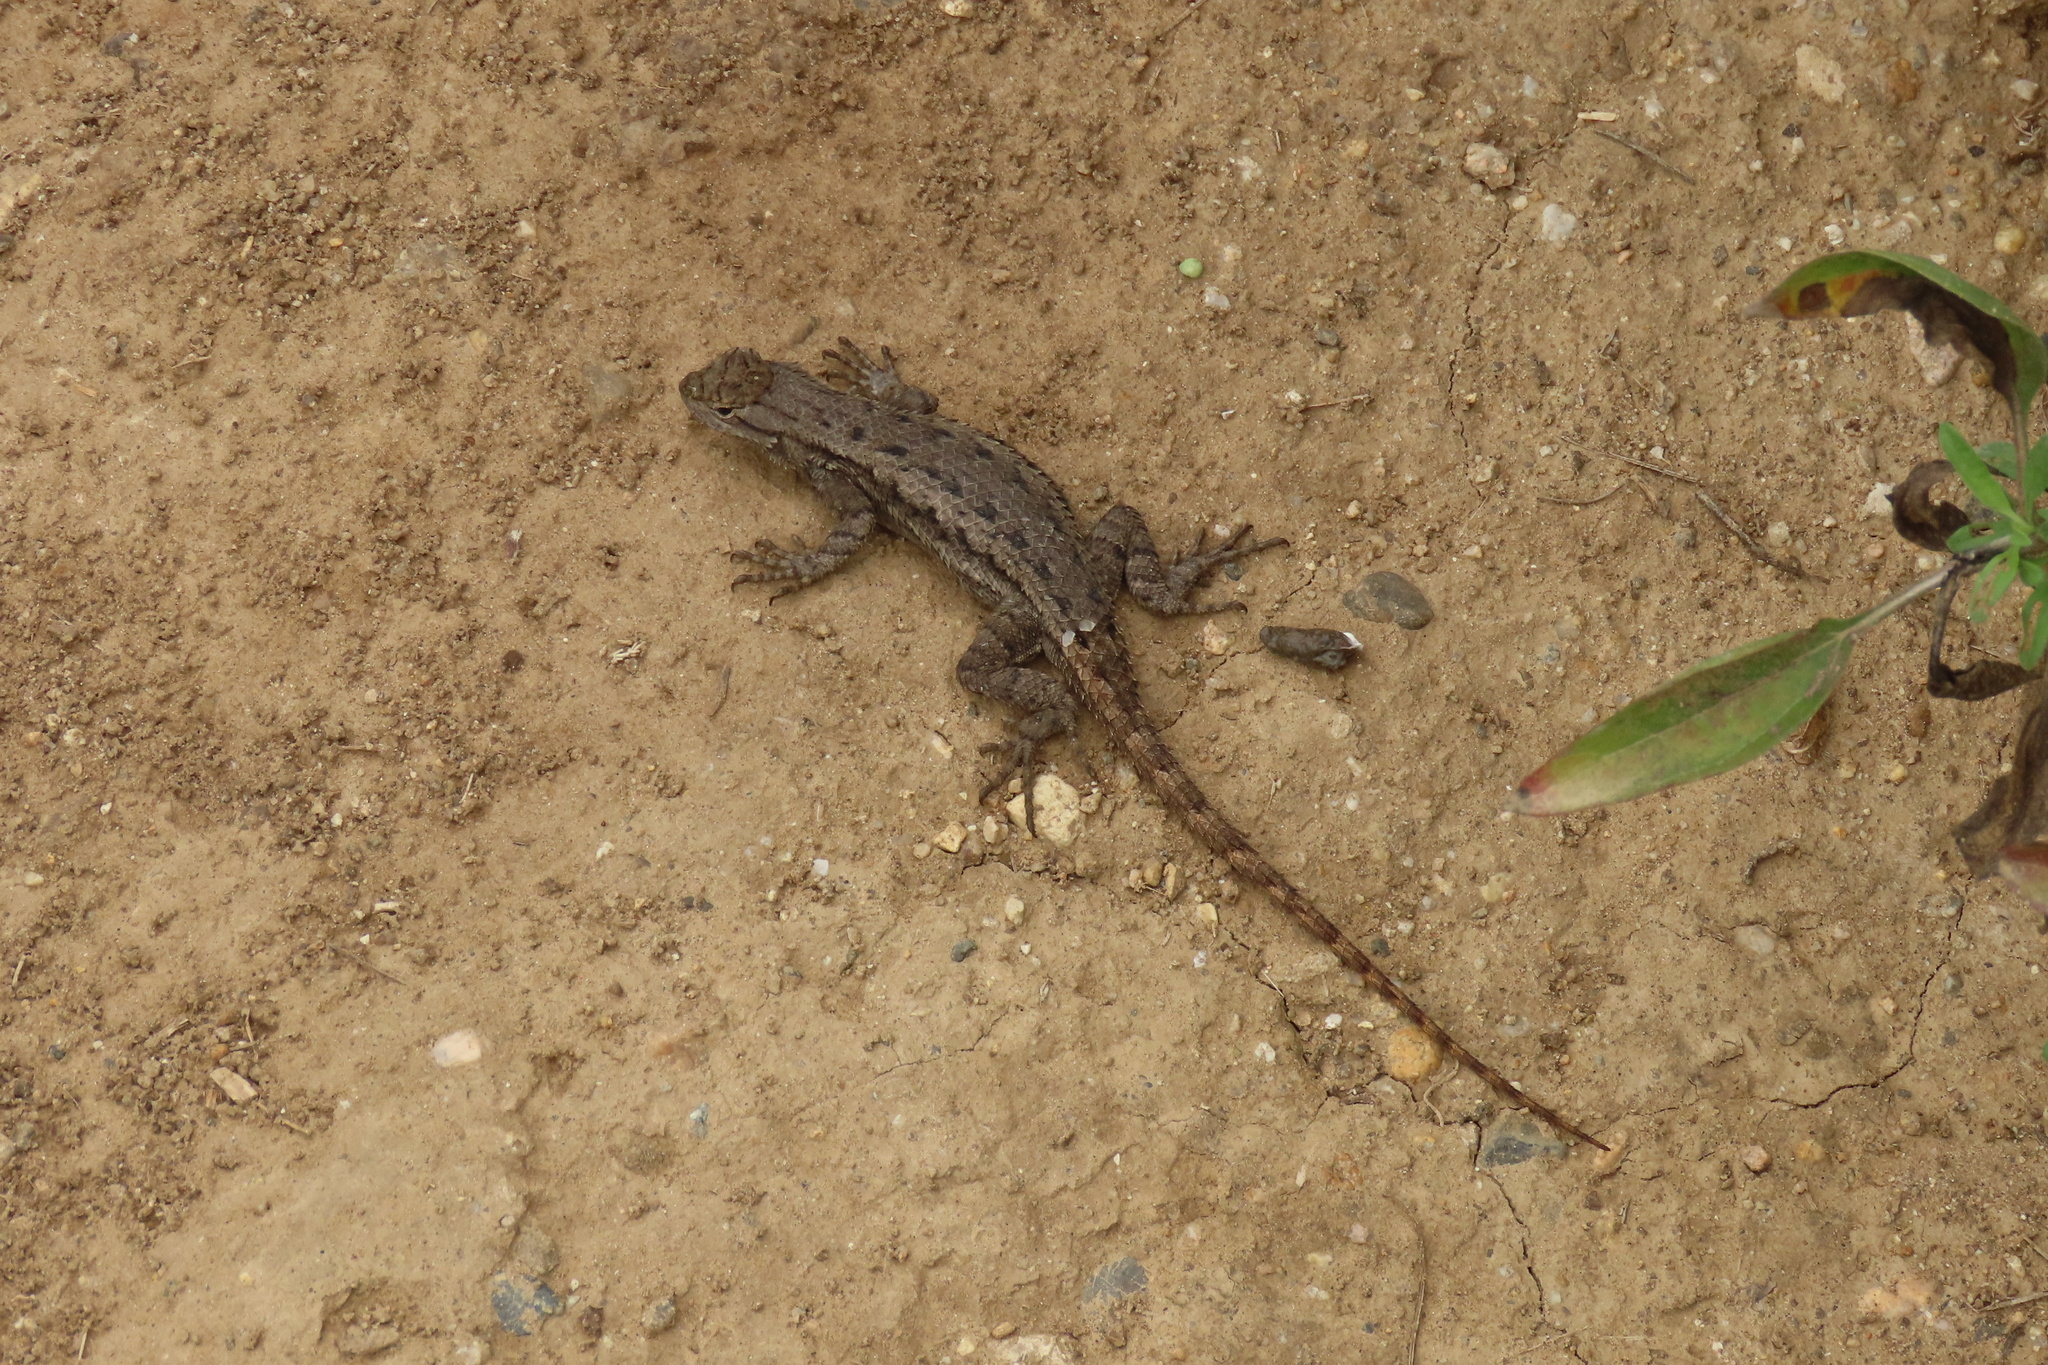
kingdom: Animalia
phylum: Chordata
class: Squamata
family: Phrynosomatidae
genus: Sceloporus
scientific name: Sceloporus occidentalis
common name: Western fence lizard
